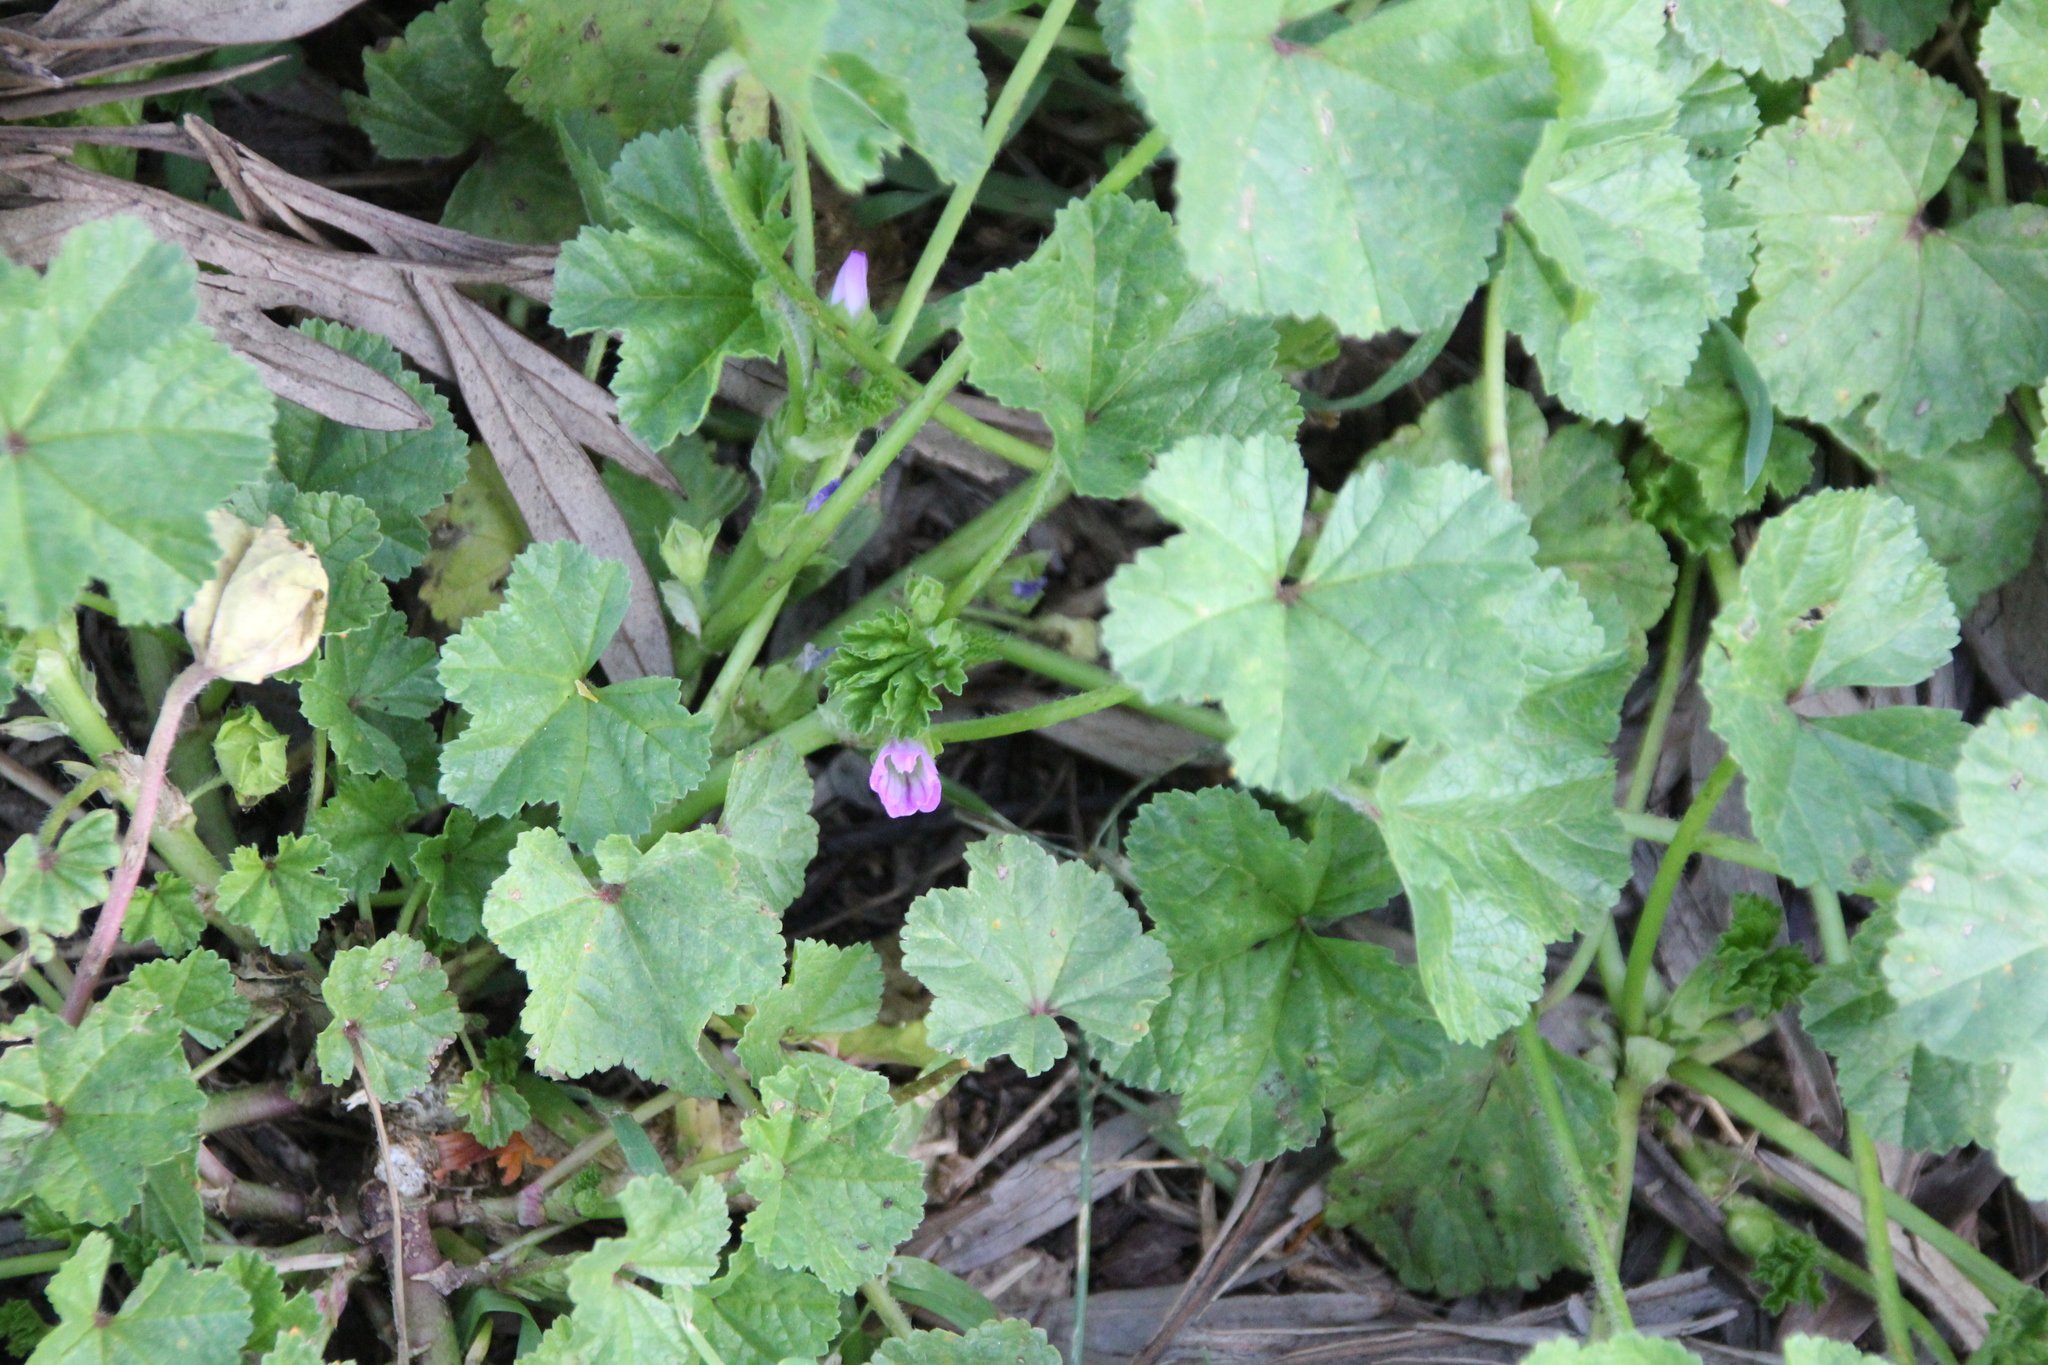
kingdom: Plantae
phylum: Tracheophyta
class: Magnoliopsida
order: Malvales
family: Malvaceae
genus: Malva
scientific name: Malva nicaeensis
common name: French mallow
